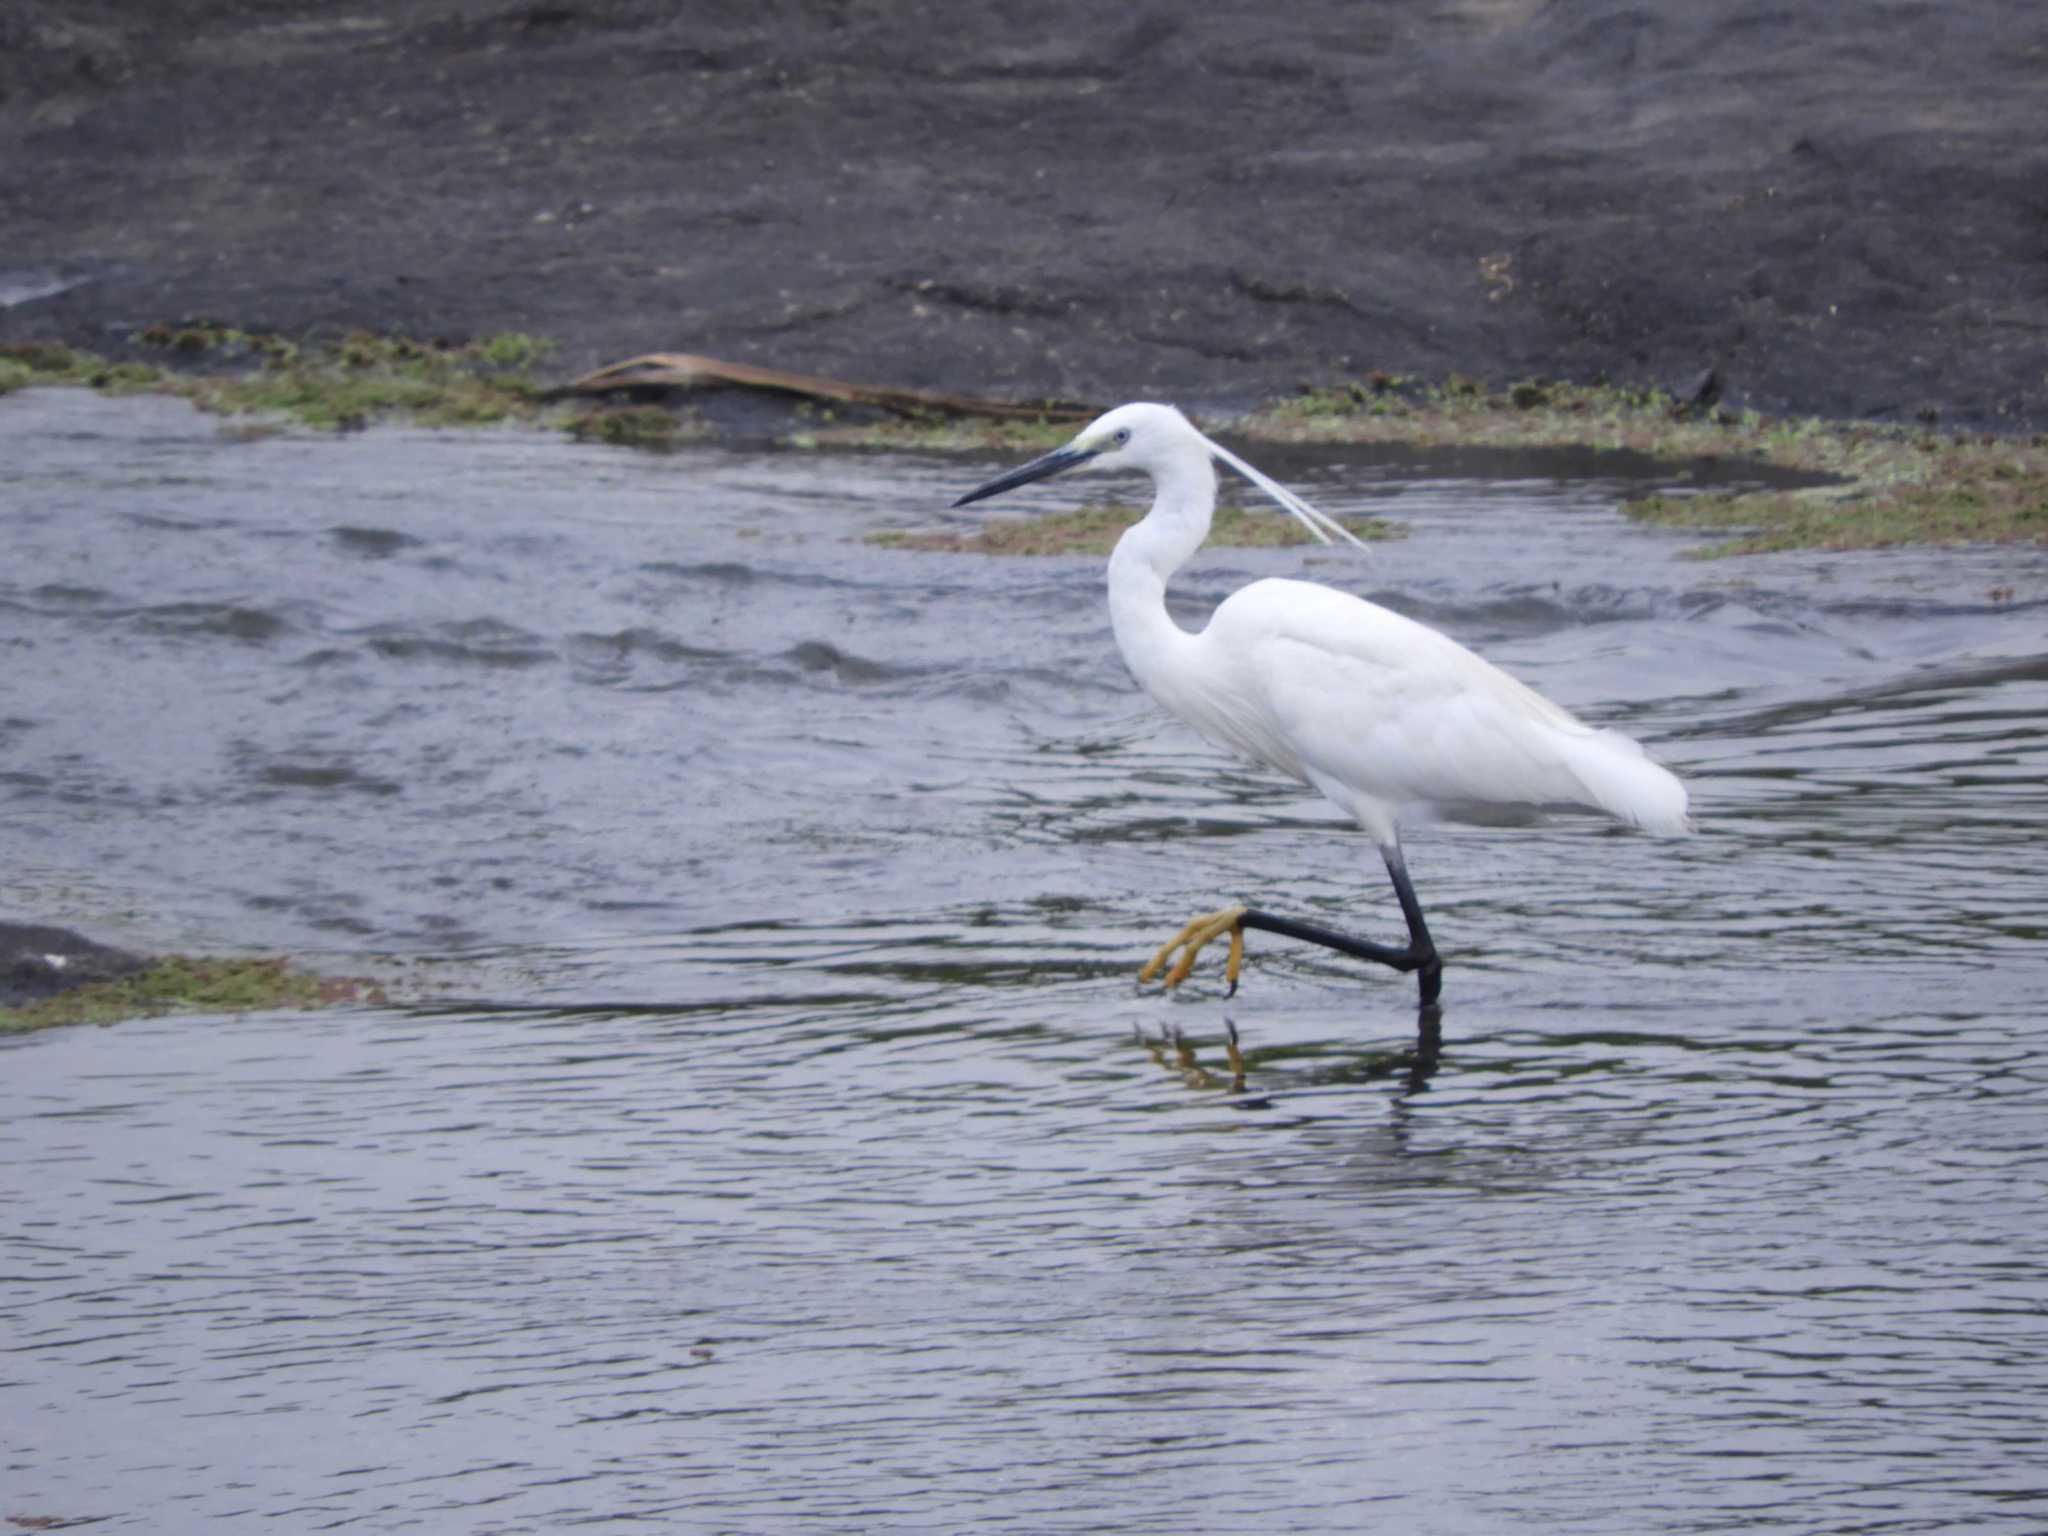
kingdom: Animalia
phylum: Chordata
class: Aves
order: Pelecaniformes
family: Ardeidae
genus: Egretta
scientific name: Egretta garzetta
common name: Little egret
